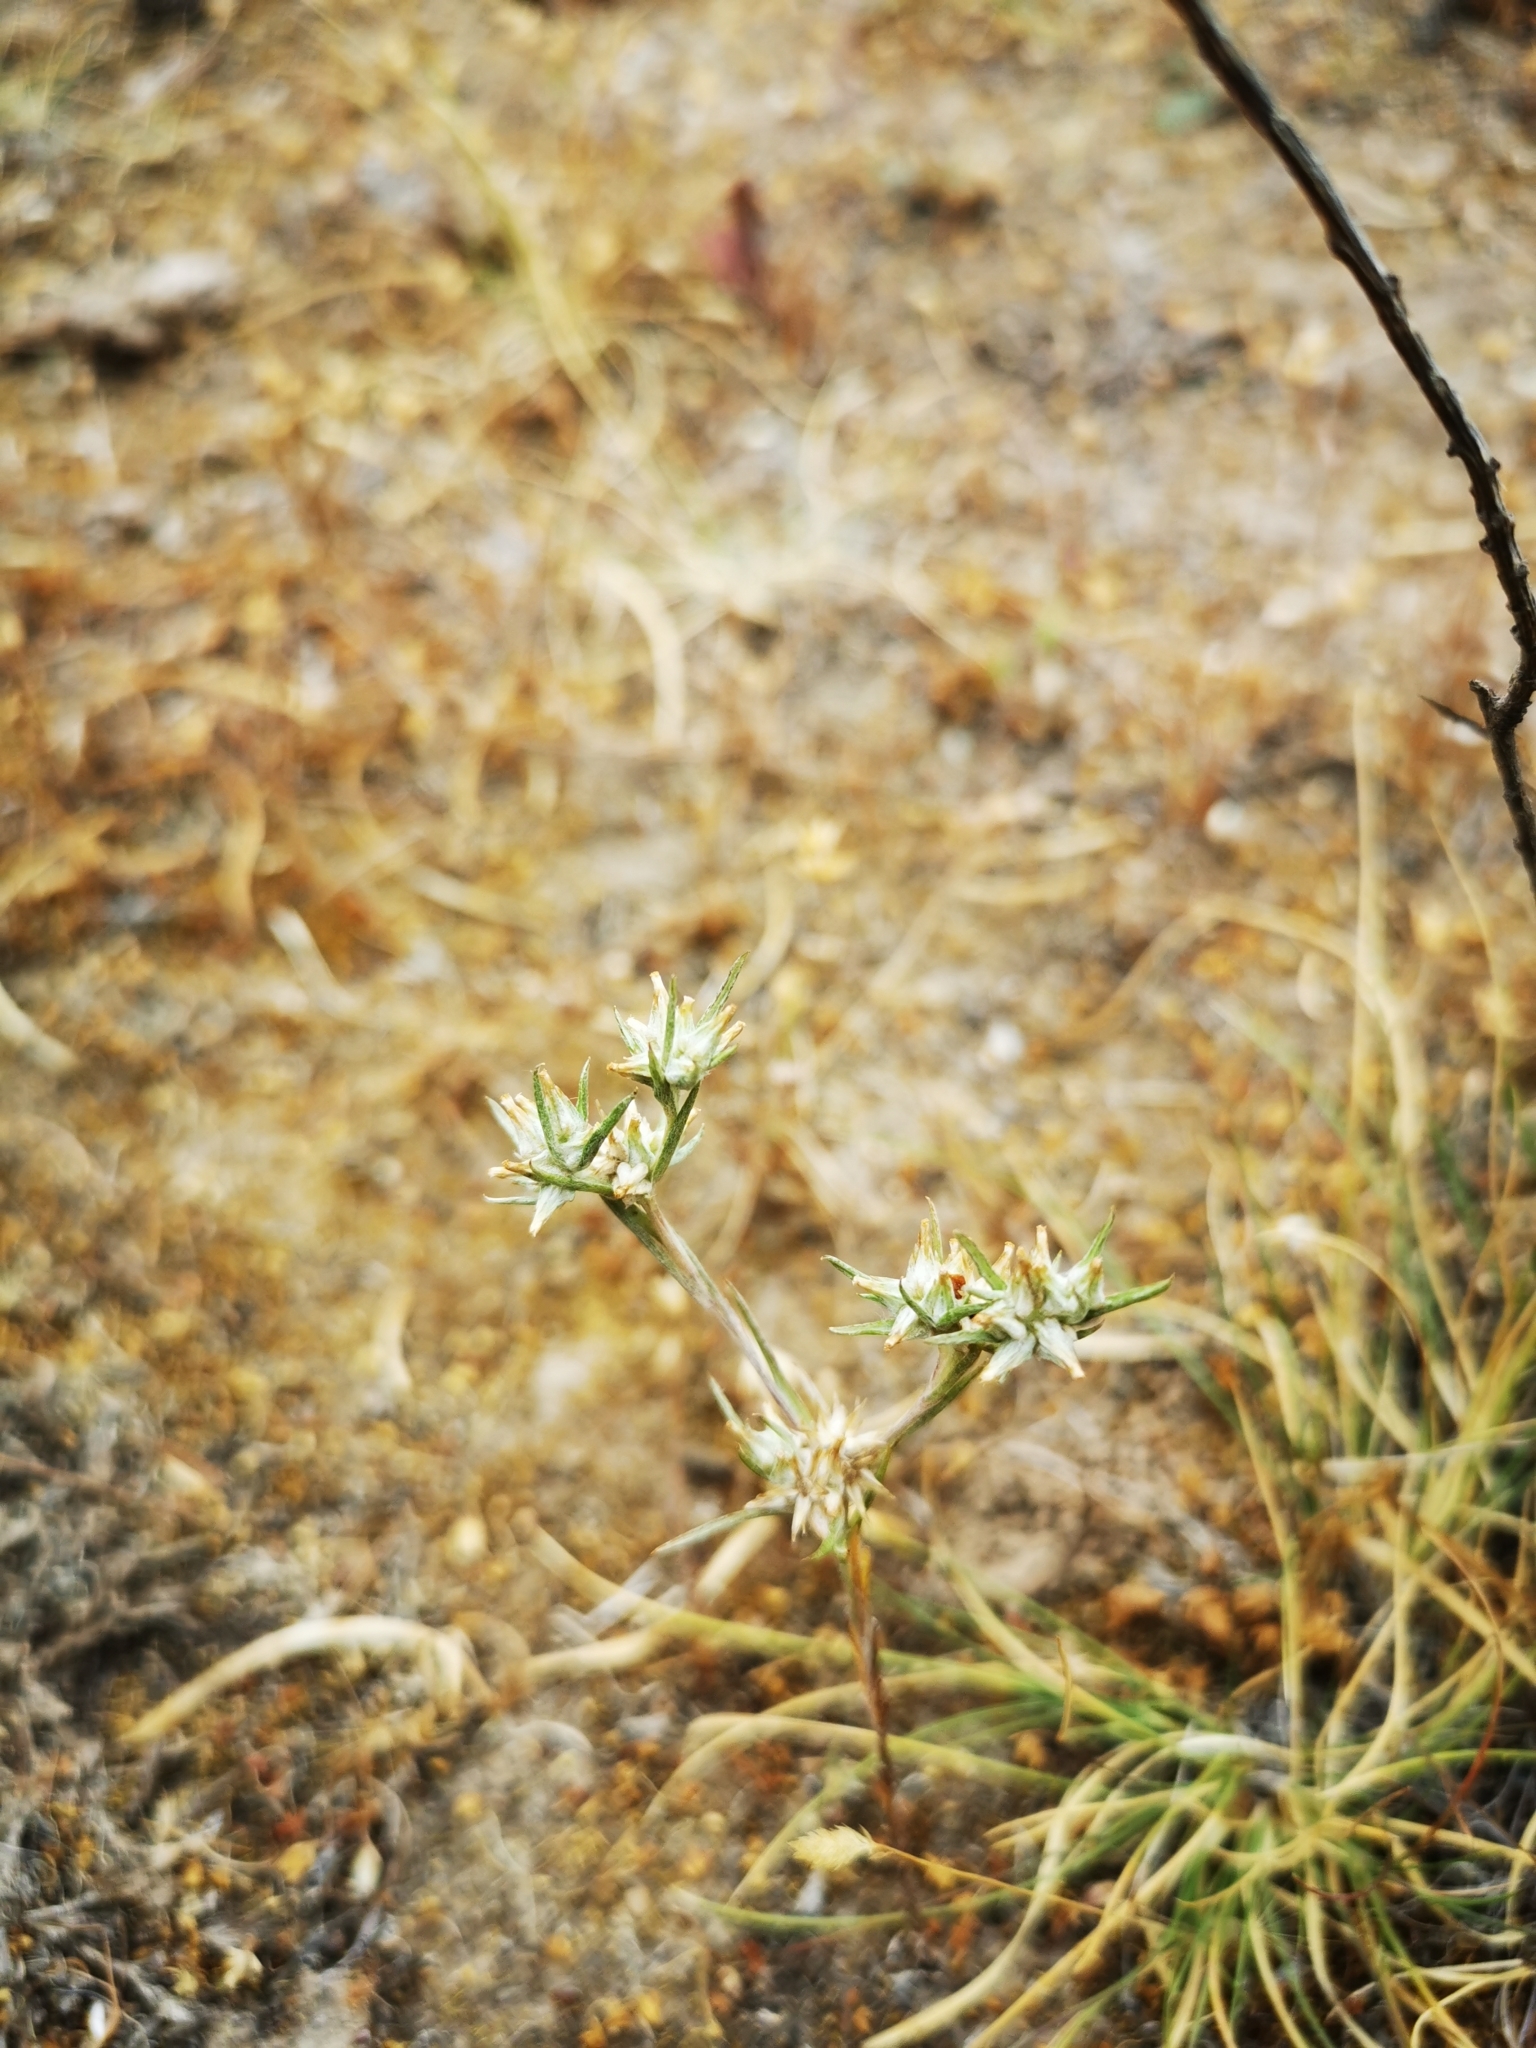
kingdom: Plantae
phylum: Tracheophyta
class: Magnoliopsida
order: Asterales
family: Asteraceae
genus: Logfia
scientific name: Logfia gallica
